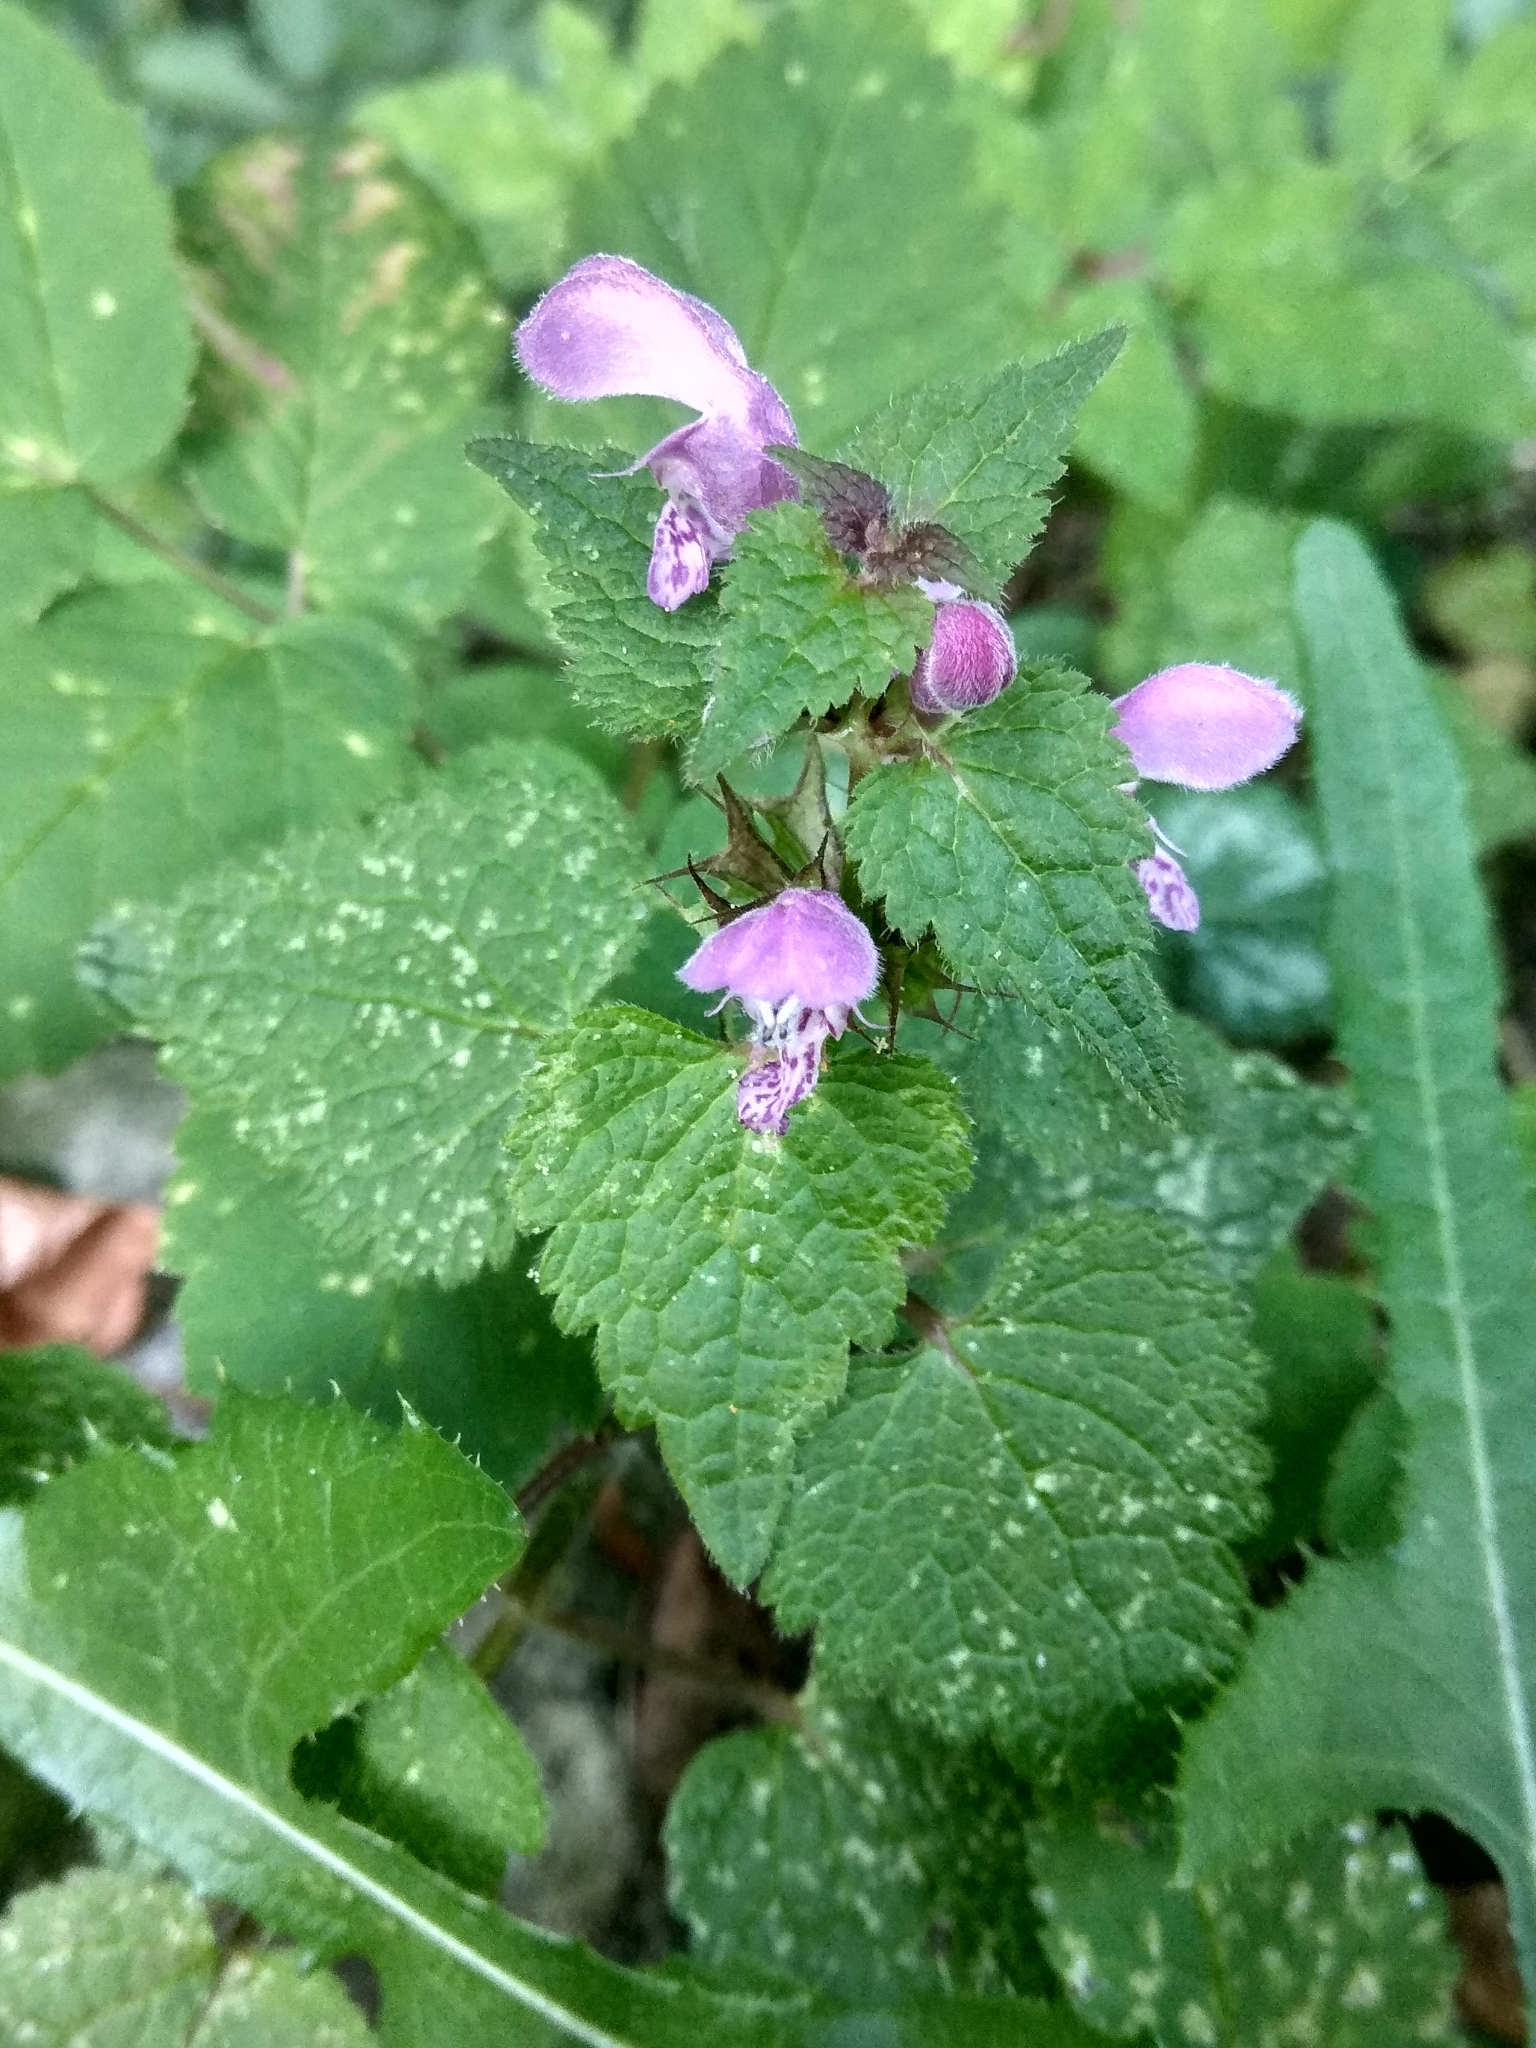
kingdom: Plantae
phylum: Tracheophyta
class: Magnoliopsida
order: Lamiales
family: Lamiaceae
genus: Lamium
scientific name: Lamium maculatum
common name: Spotted dead-nettle
